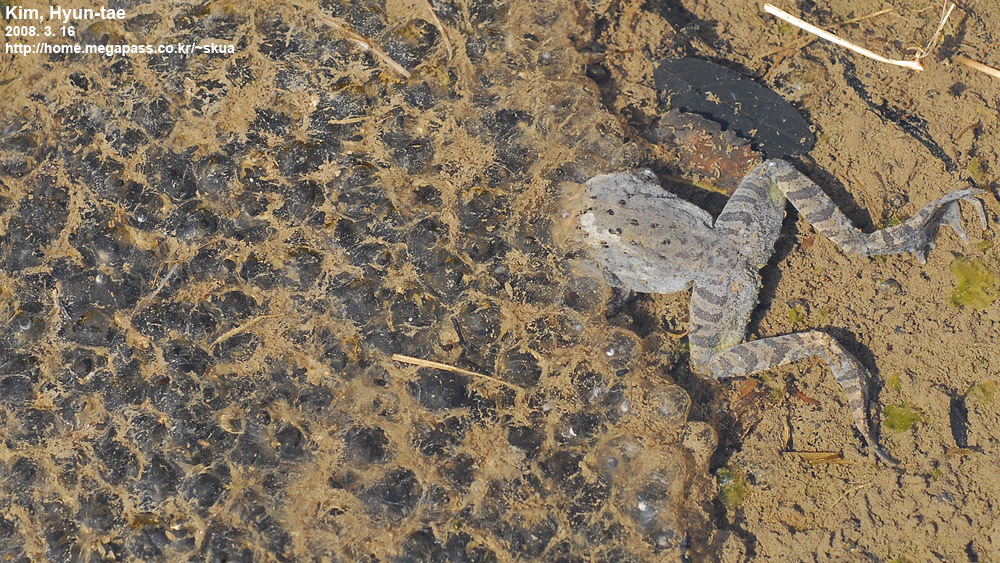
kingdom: Animalia
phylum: Chordata
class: Amphibia
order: Anura
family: Ranidae
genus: Rana
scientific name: Rana uenoi
